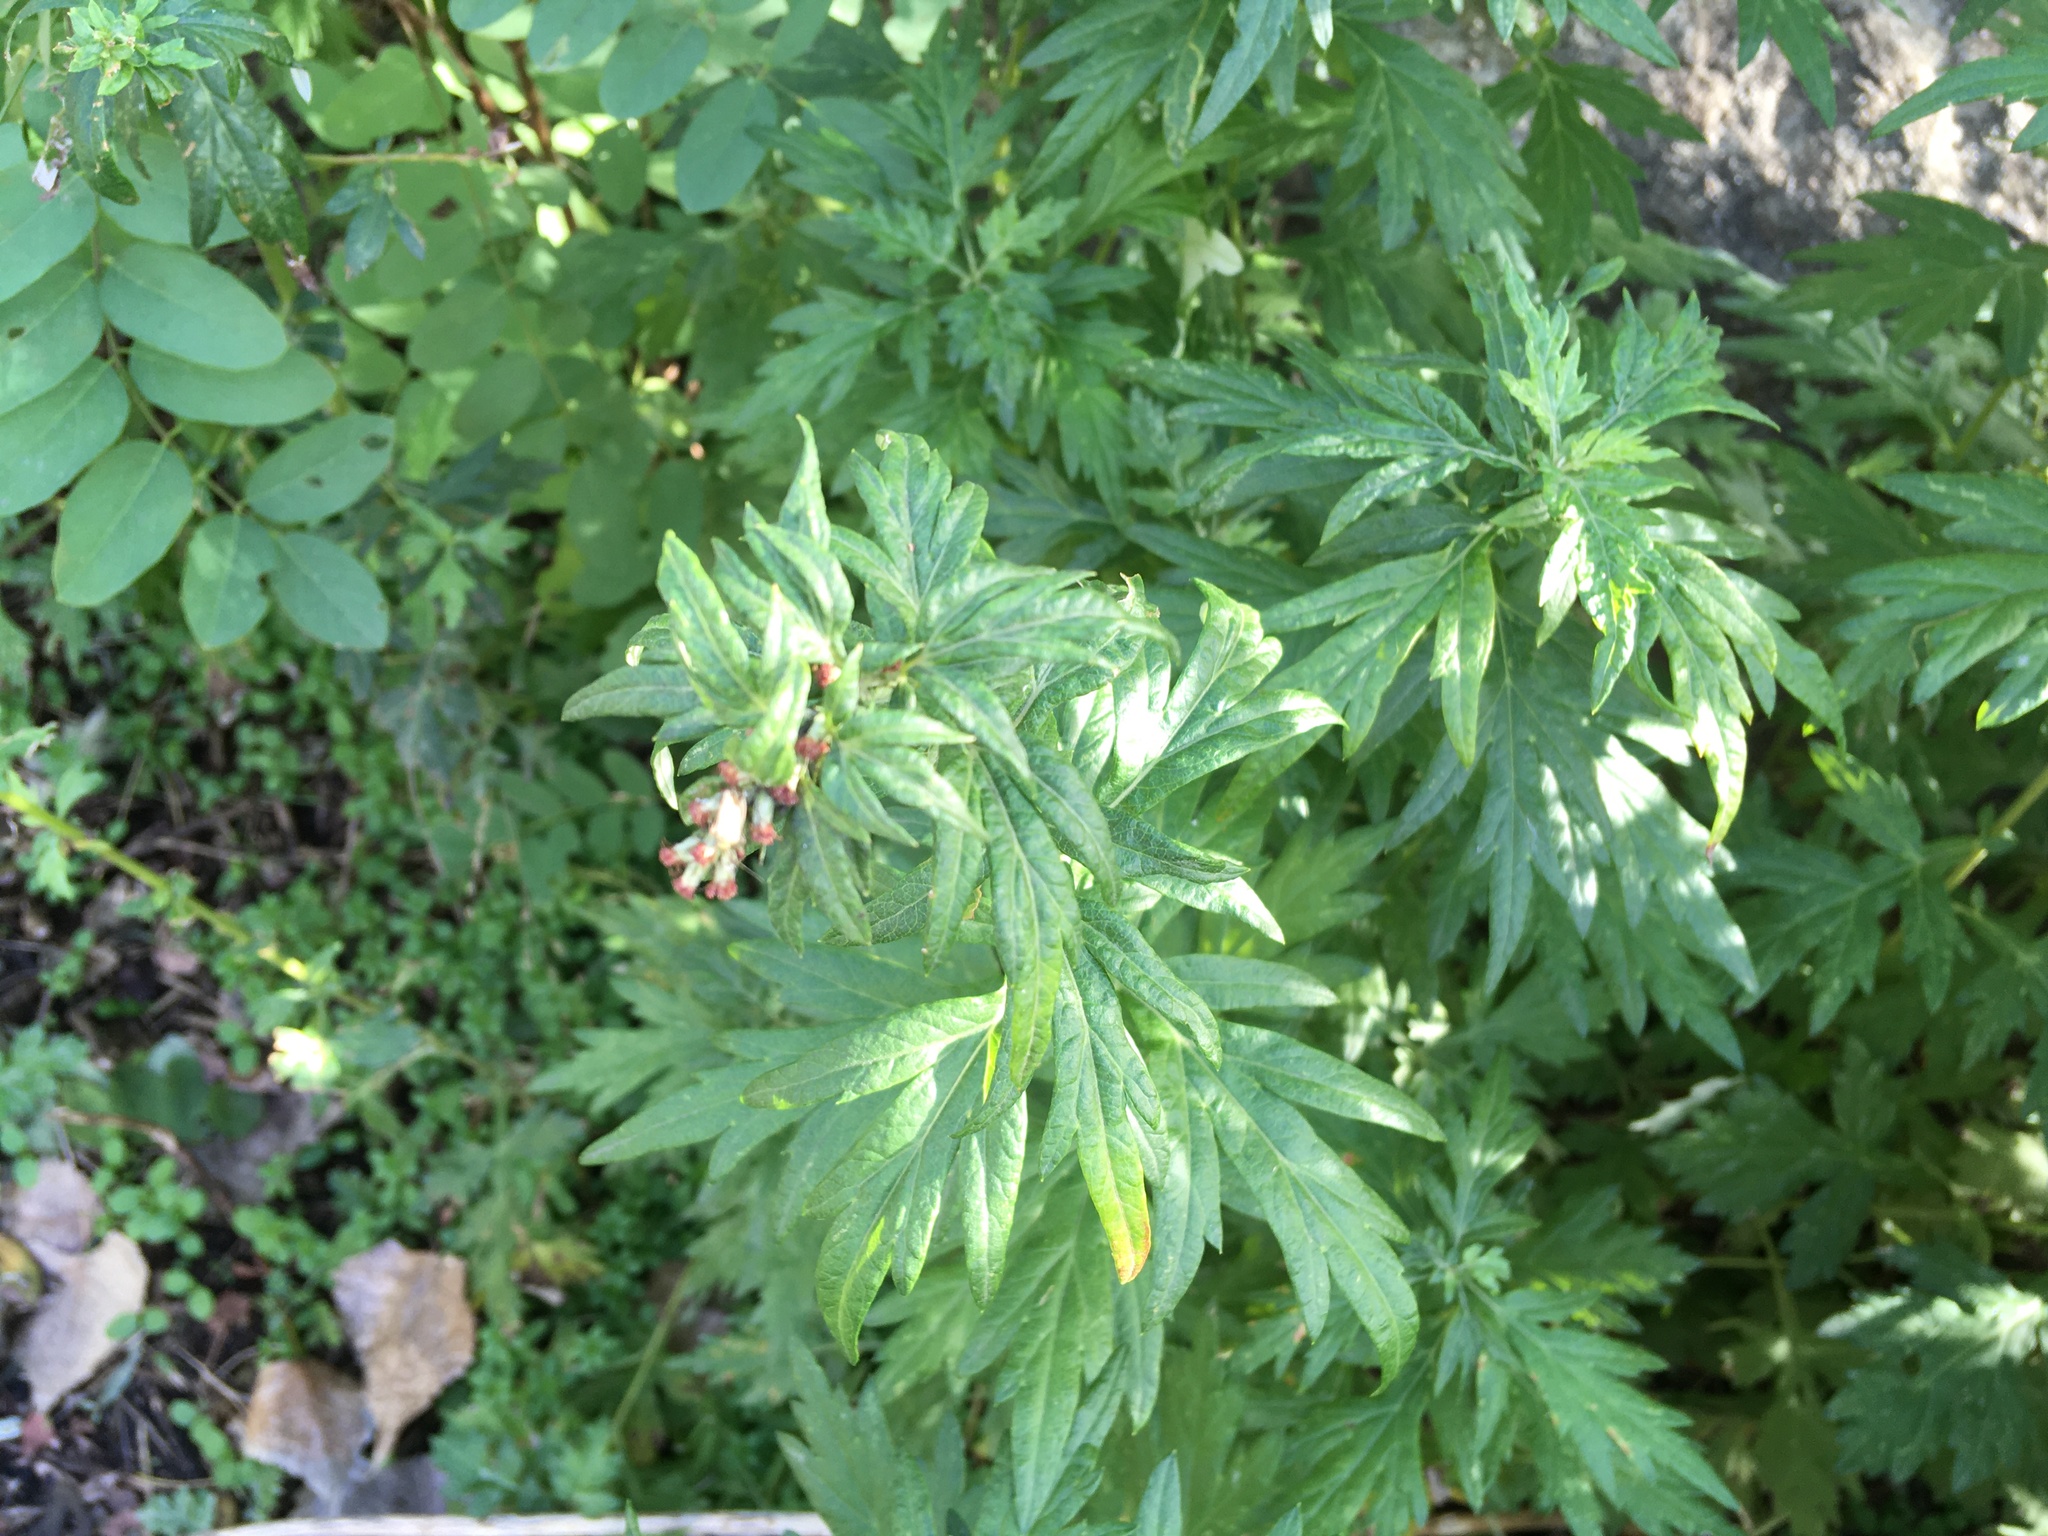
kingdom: Plantae
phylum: Tracheophyta
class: Magnoliopsida
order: Asterales
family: Asteraceae
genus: Artemisia
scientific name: Artemisia vulgaris
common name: Mugwort
